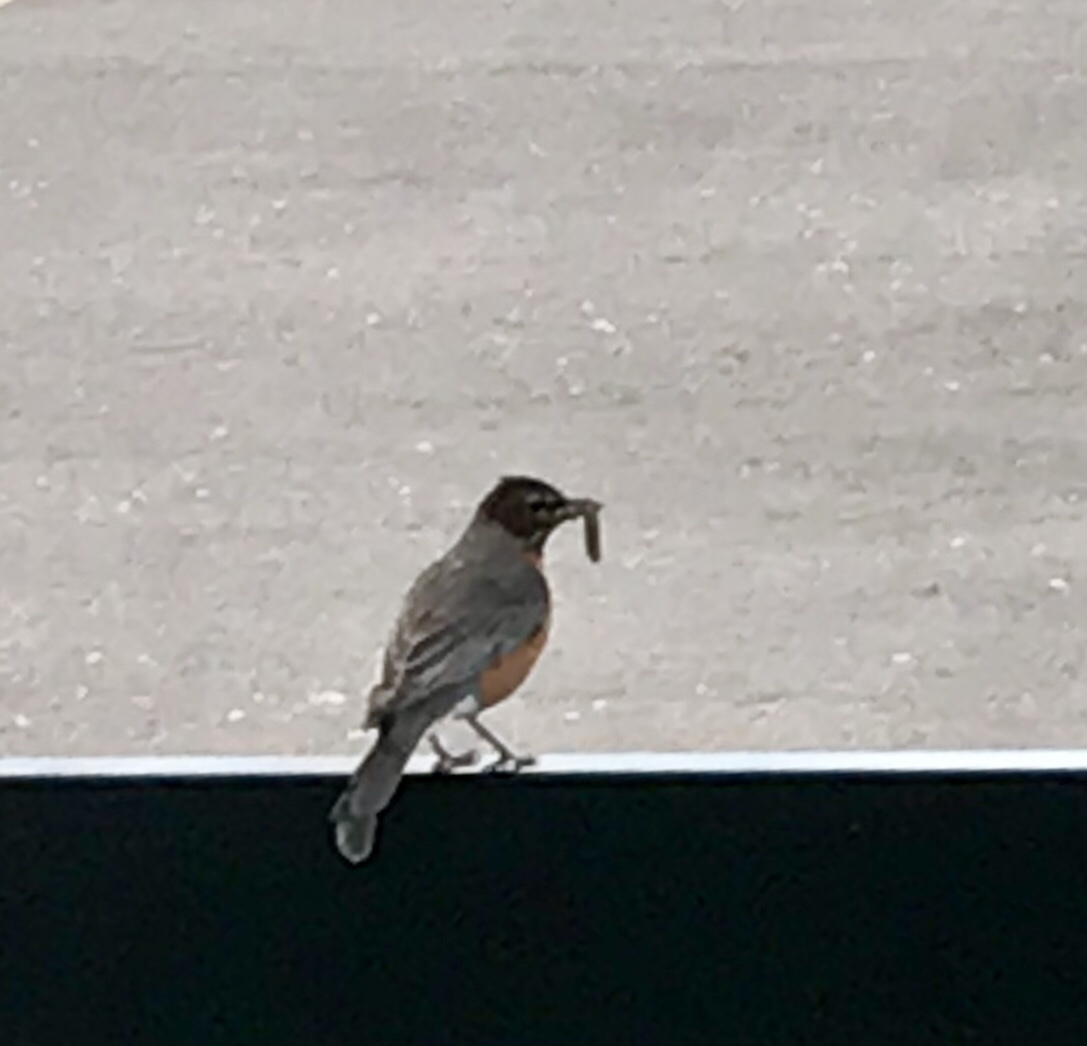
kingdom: Animalia
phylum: Chordata
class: Aves
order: Passeriformes
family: Turdidae
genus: Turdus
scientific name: Turdus migratorius
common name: American robin
